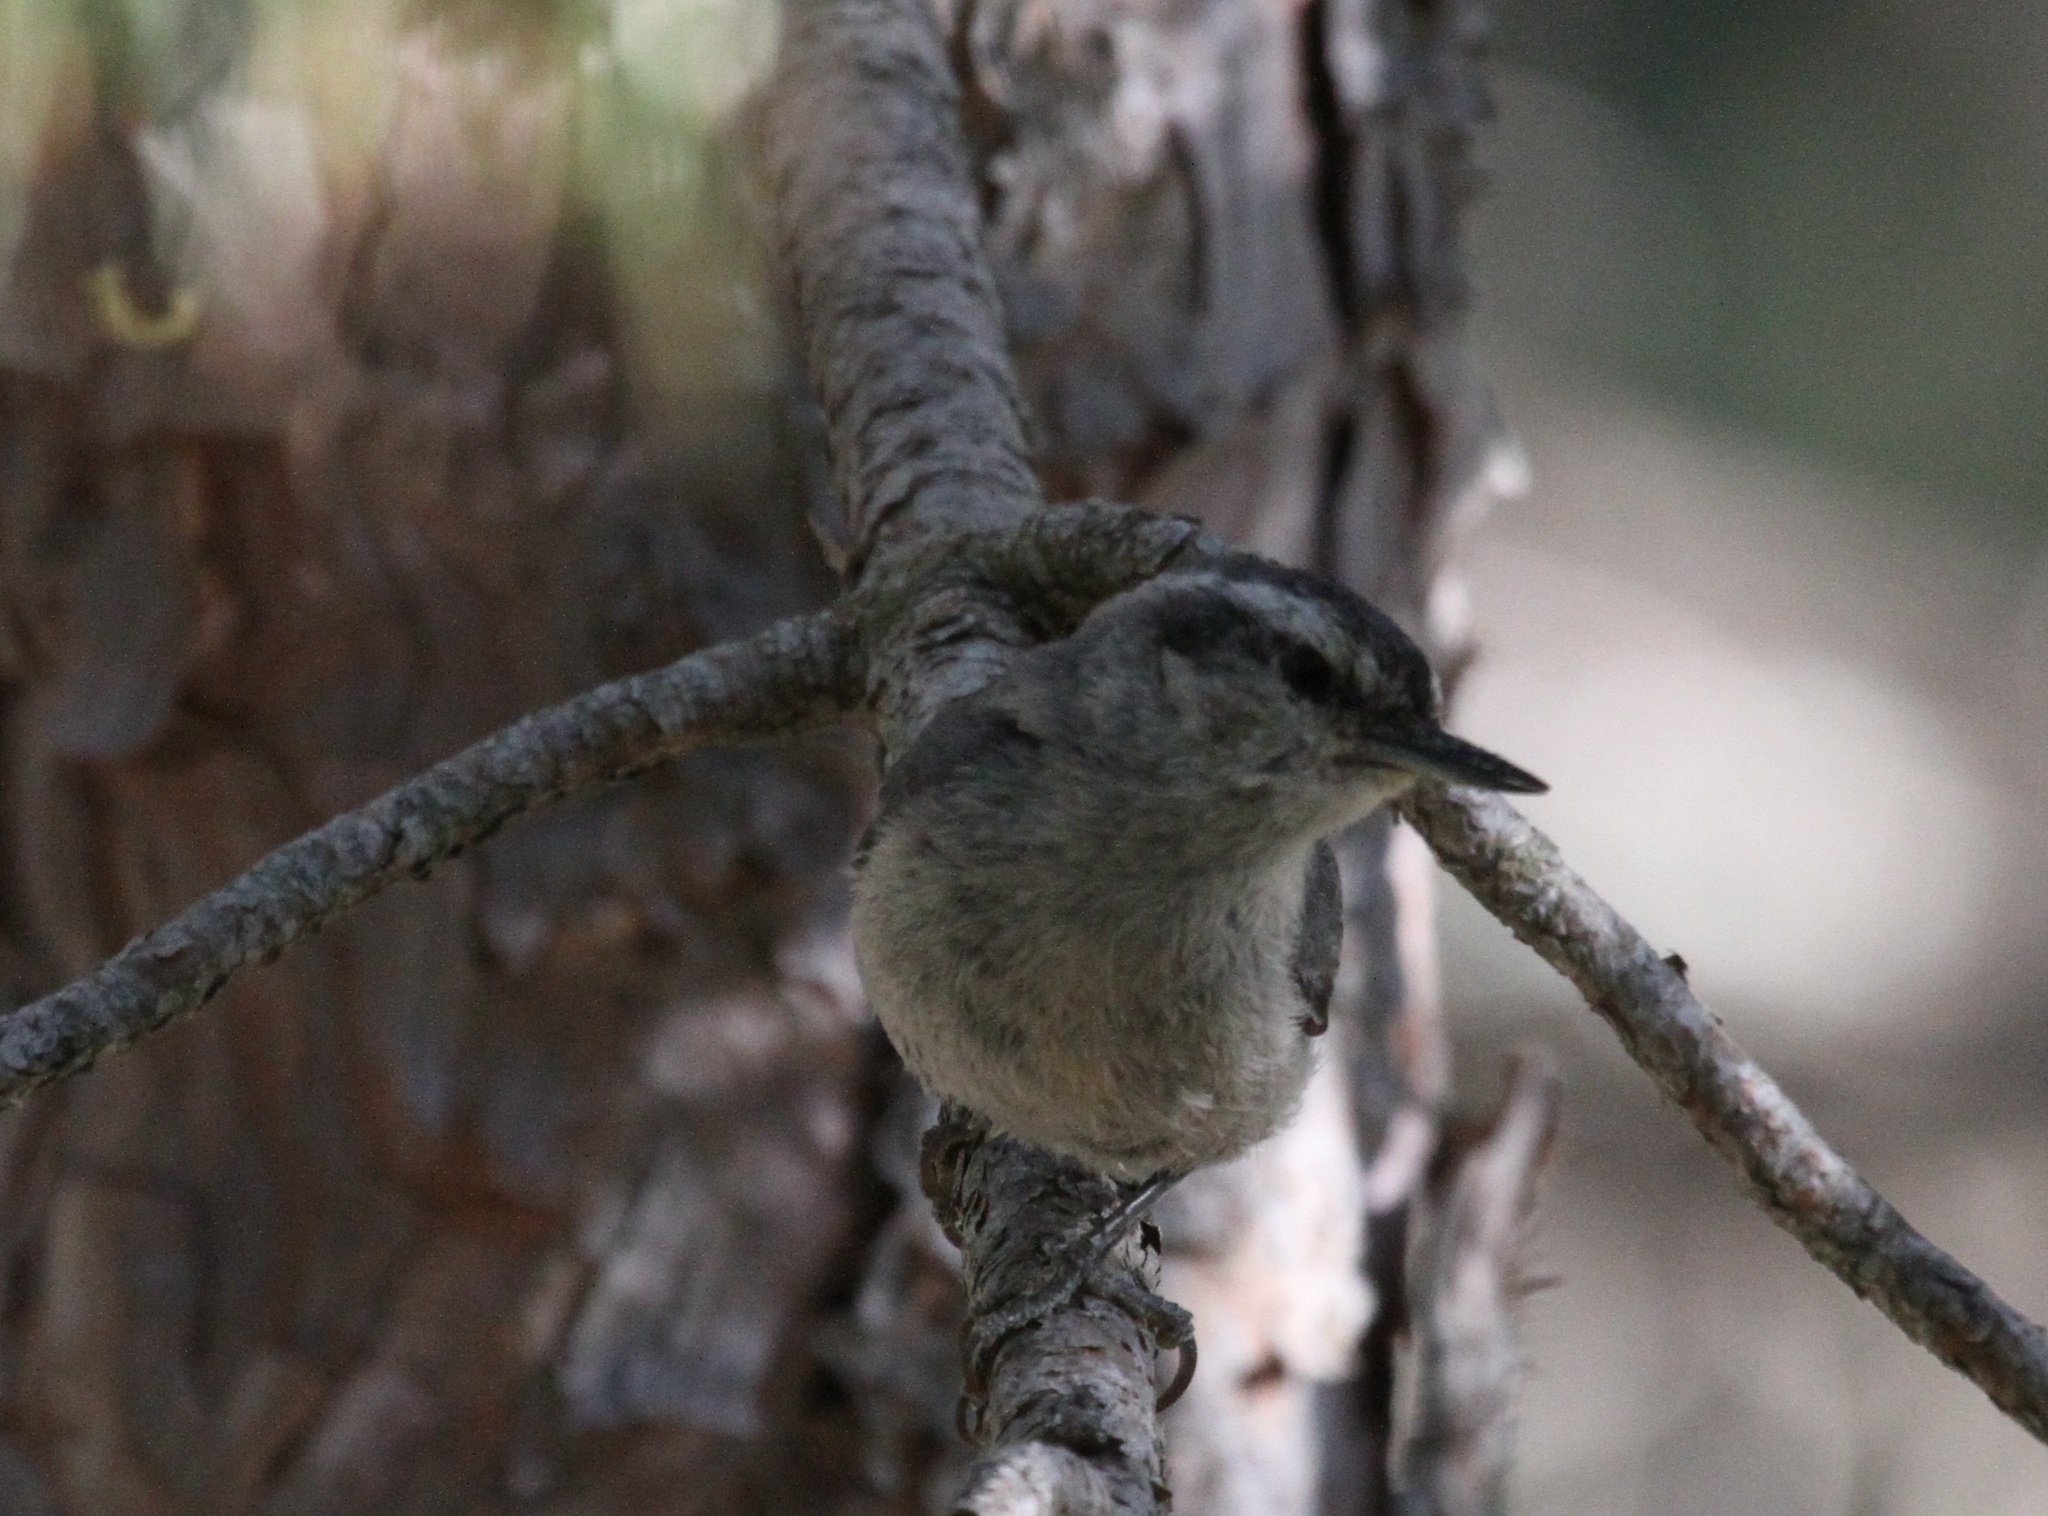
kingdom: Animalia
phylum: Chordata
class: Aves
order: Passeriformes
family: Sittidae
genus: Sitta
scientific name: Sitta whiteheadi
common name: Corsican nuthatch
